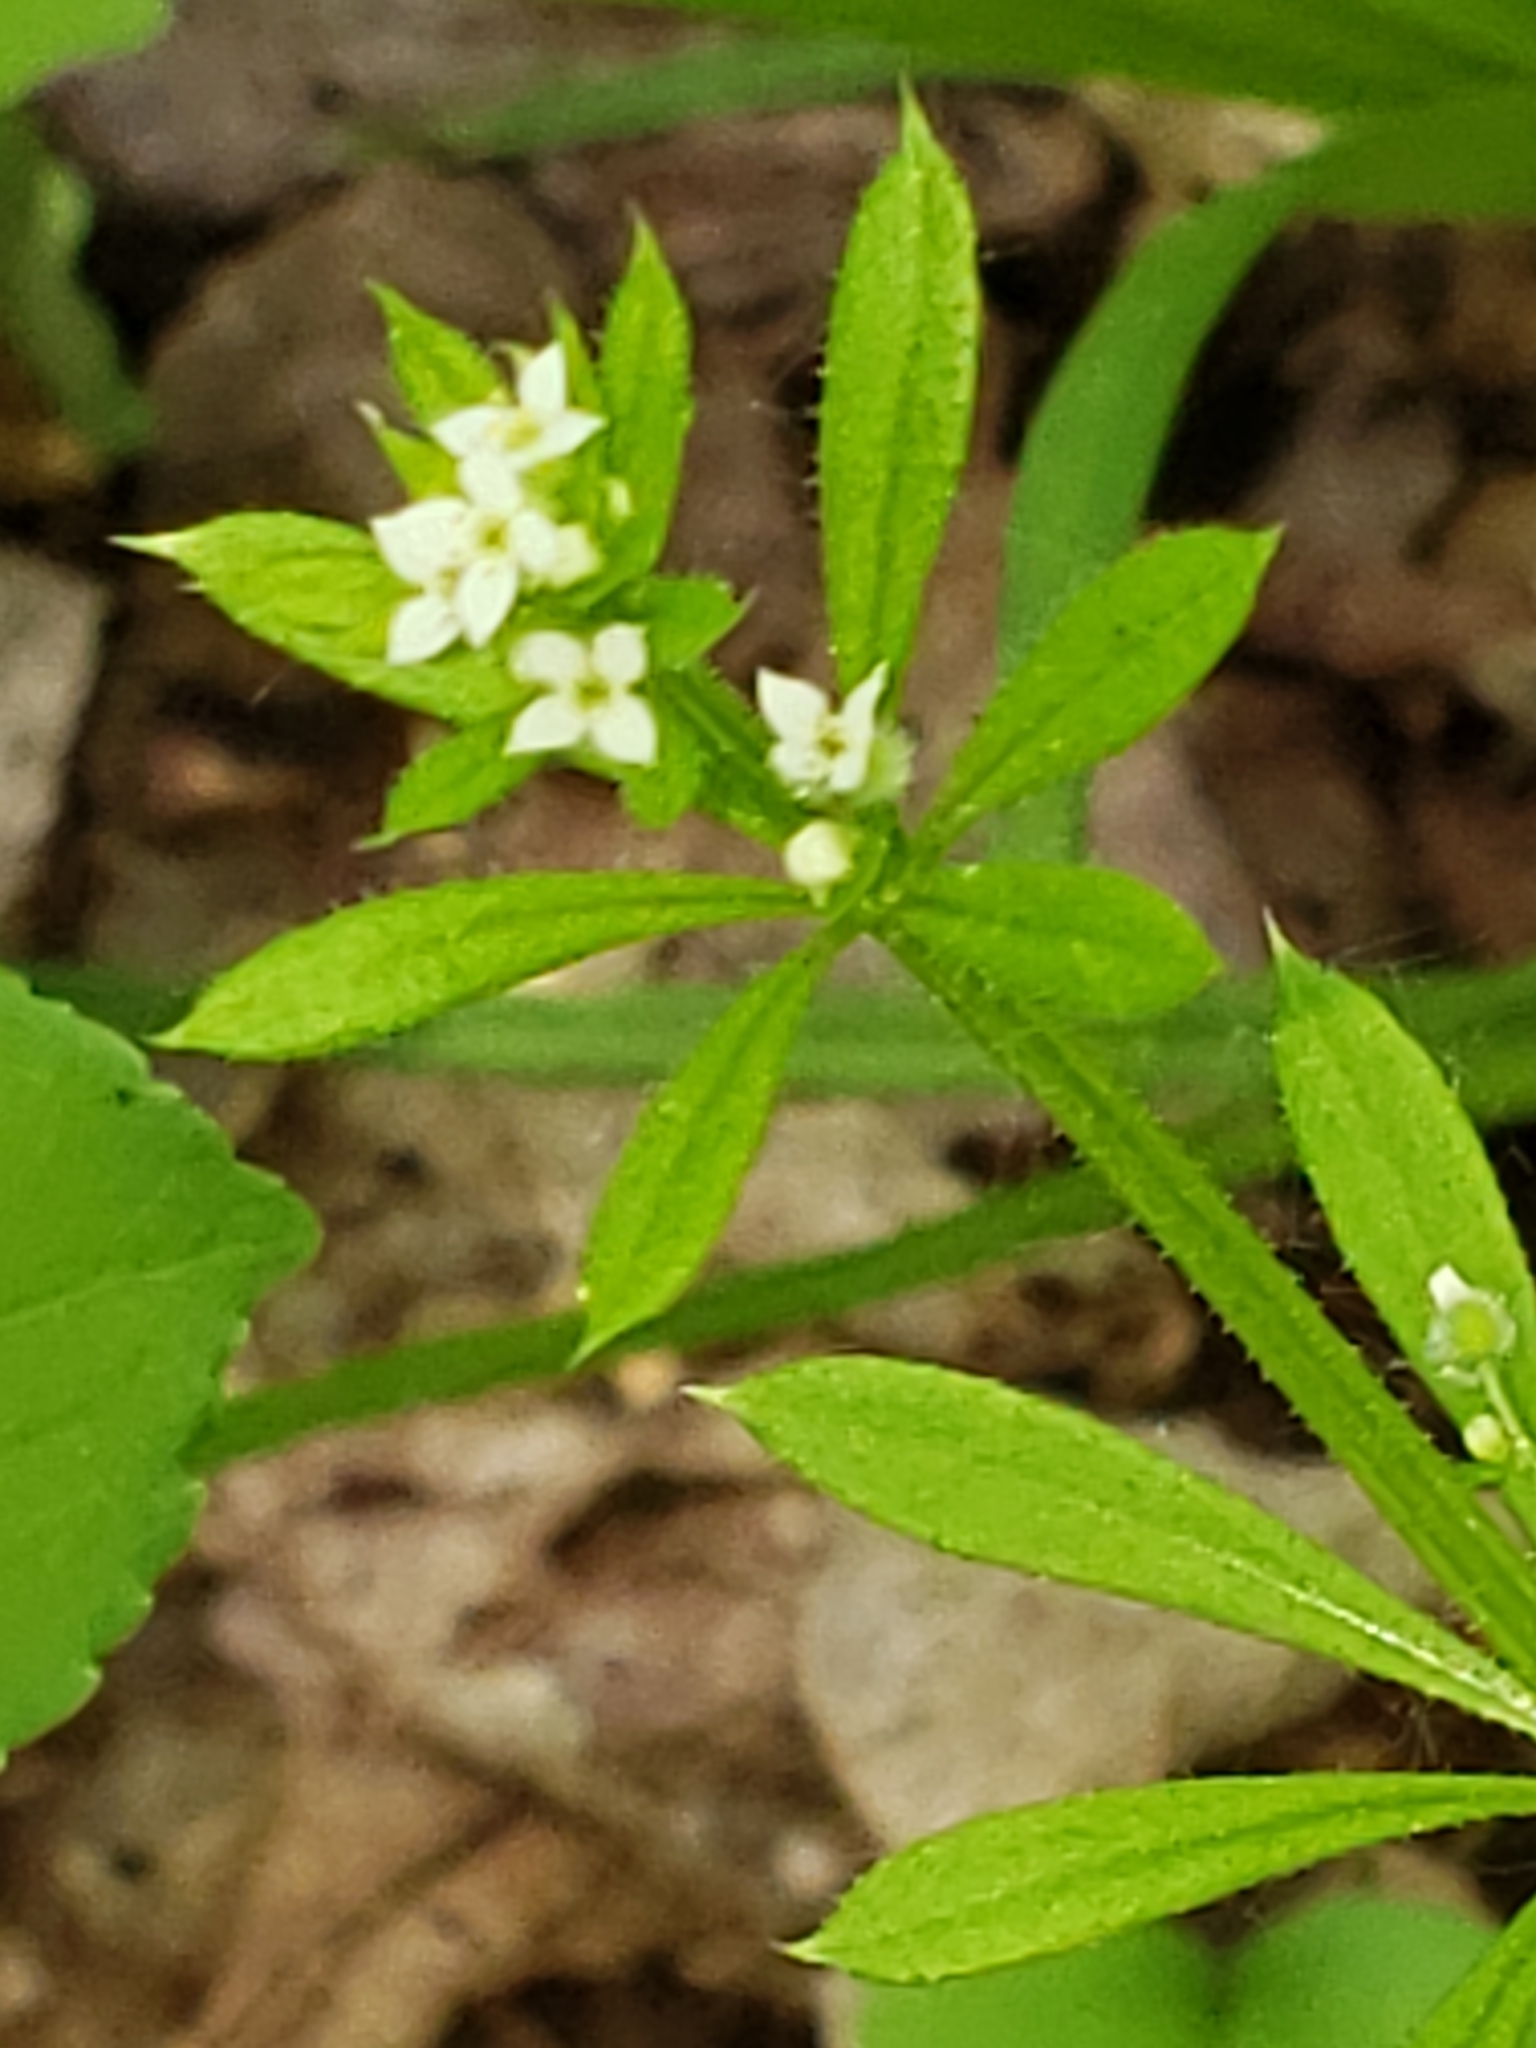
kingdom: Plantae
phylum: Tracheophyta
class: Magnoliopsida
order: Gentianales
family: Rubiaceae
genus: Galium
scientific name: Galium aparine
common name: Cleavers
